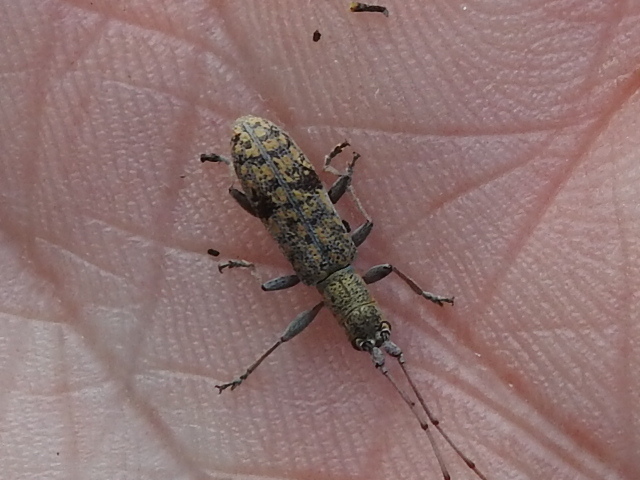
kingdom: Animalia
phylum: Arthropoda
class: Insecta
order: Coleoptera
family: Cerambycidae
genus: Dorcaschema
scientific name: Dorcaschema alternatum
